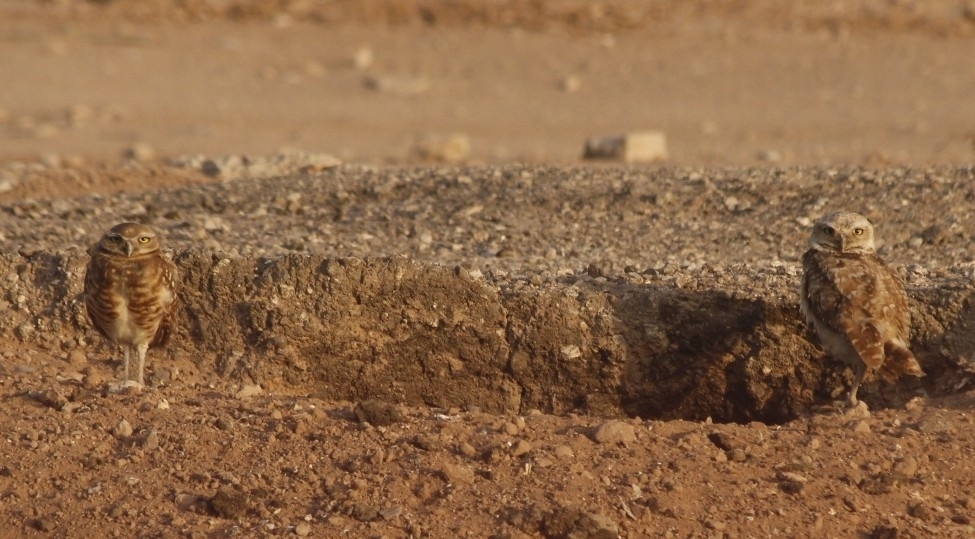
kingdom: Animalia
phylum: Chordata
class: Aves
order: Strigiformes
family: Strigidae
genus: Athene
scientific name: Athene cunicularia
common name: Burrowing owl
